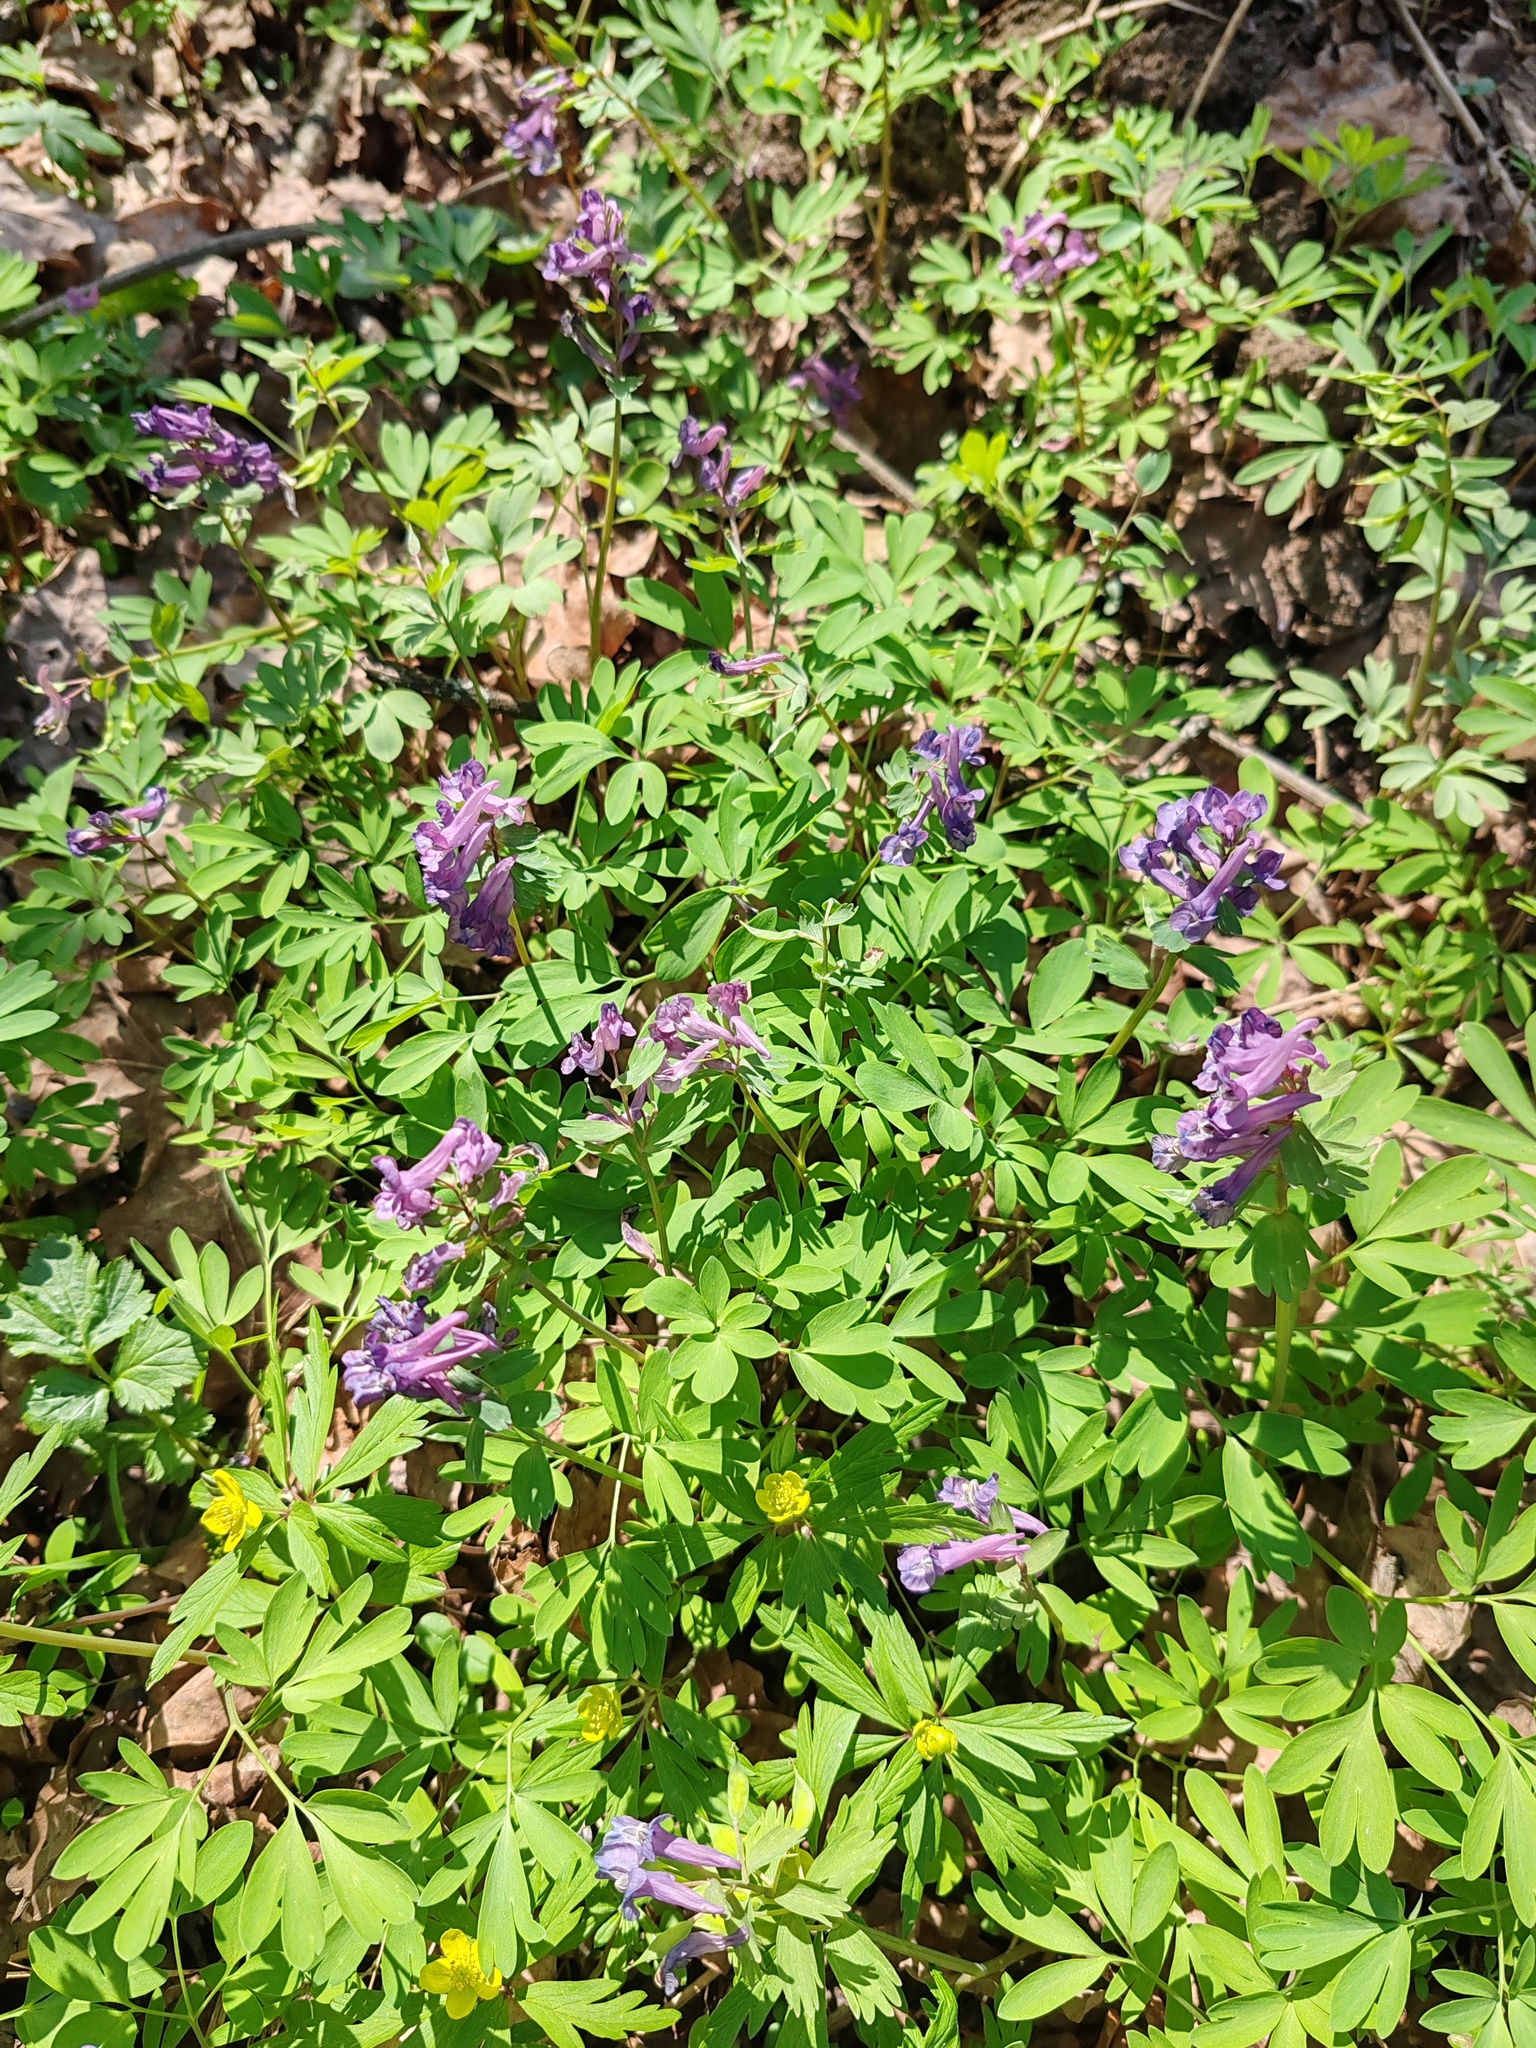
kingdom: Plantae
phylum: Tracheophyta
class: Magnoliopsida
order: Ranunculales
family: Papaveraceae
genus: Corydalis
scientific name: Corydalis solida
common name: Bird-in-a-bush
